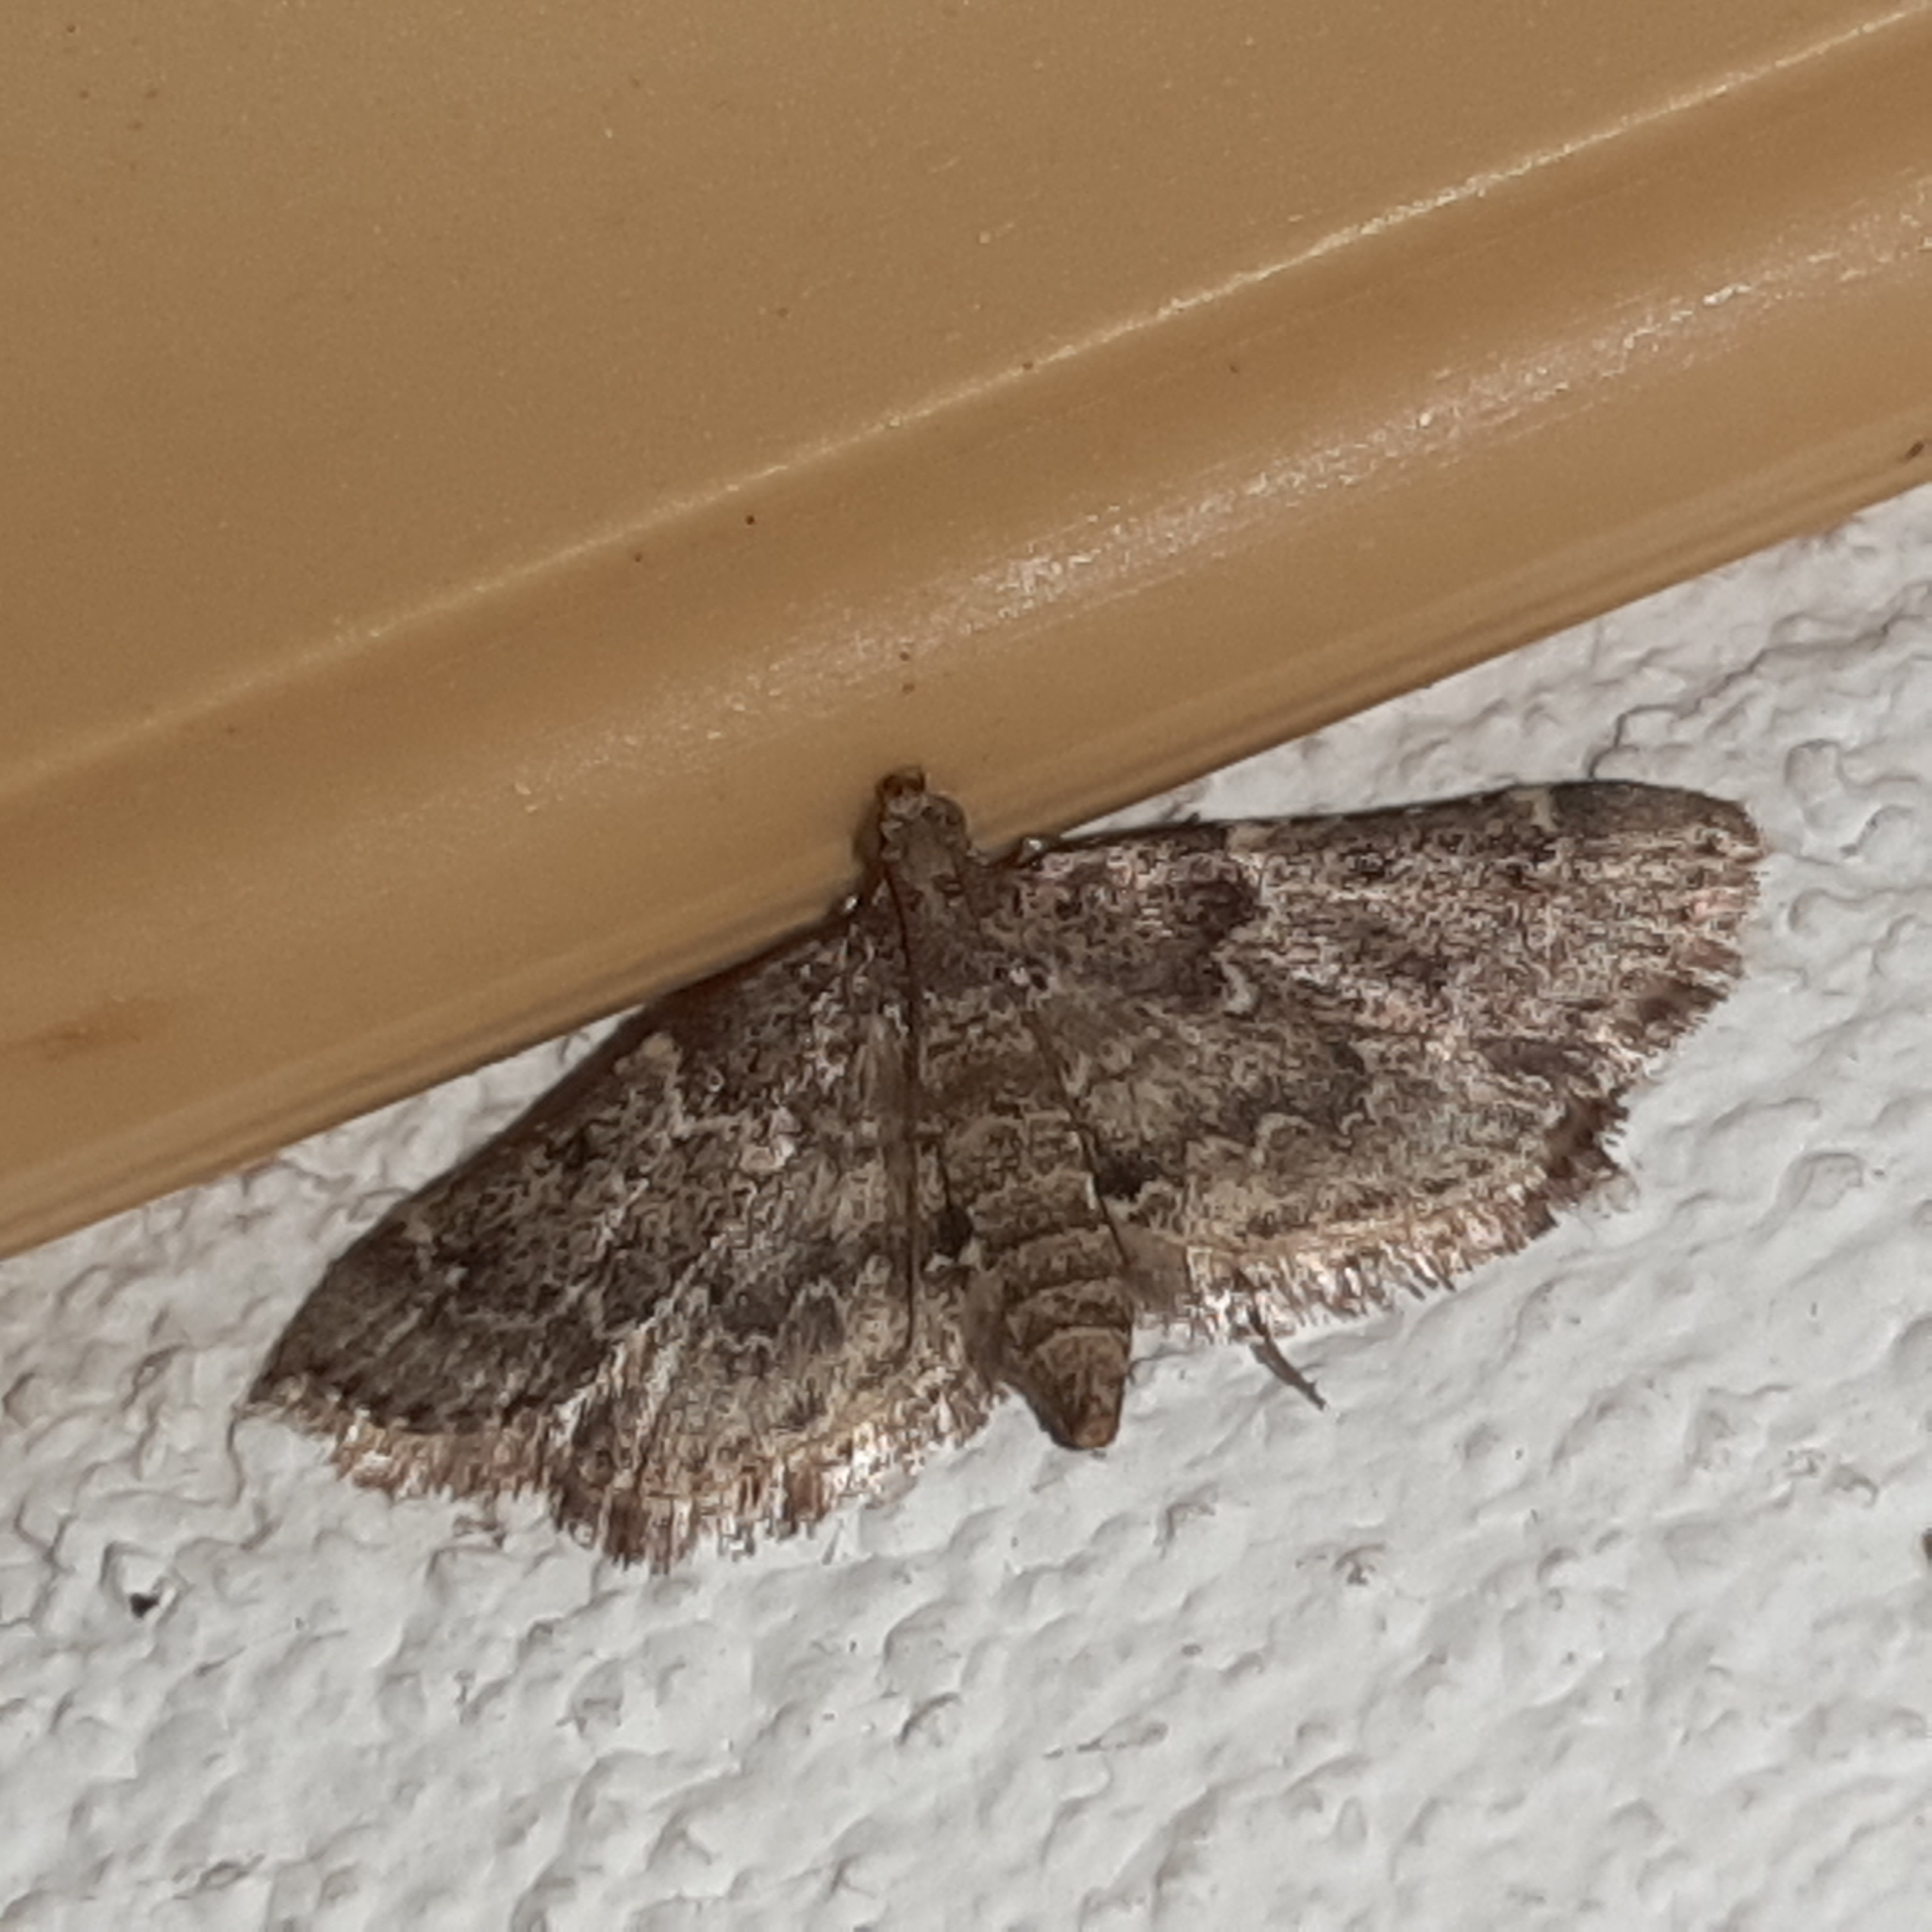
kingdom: Animalia
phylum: Arthropoda
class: Insecta
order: Lepidoptera
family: Pyralidae
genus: Pyralis
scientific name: Pyralis manihotalis
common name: Moth
